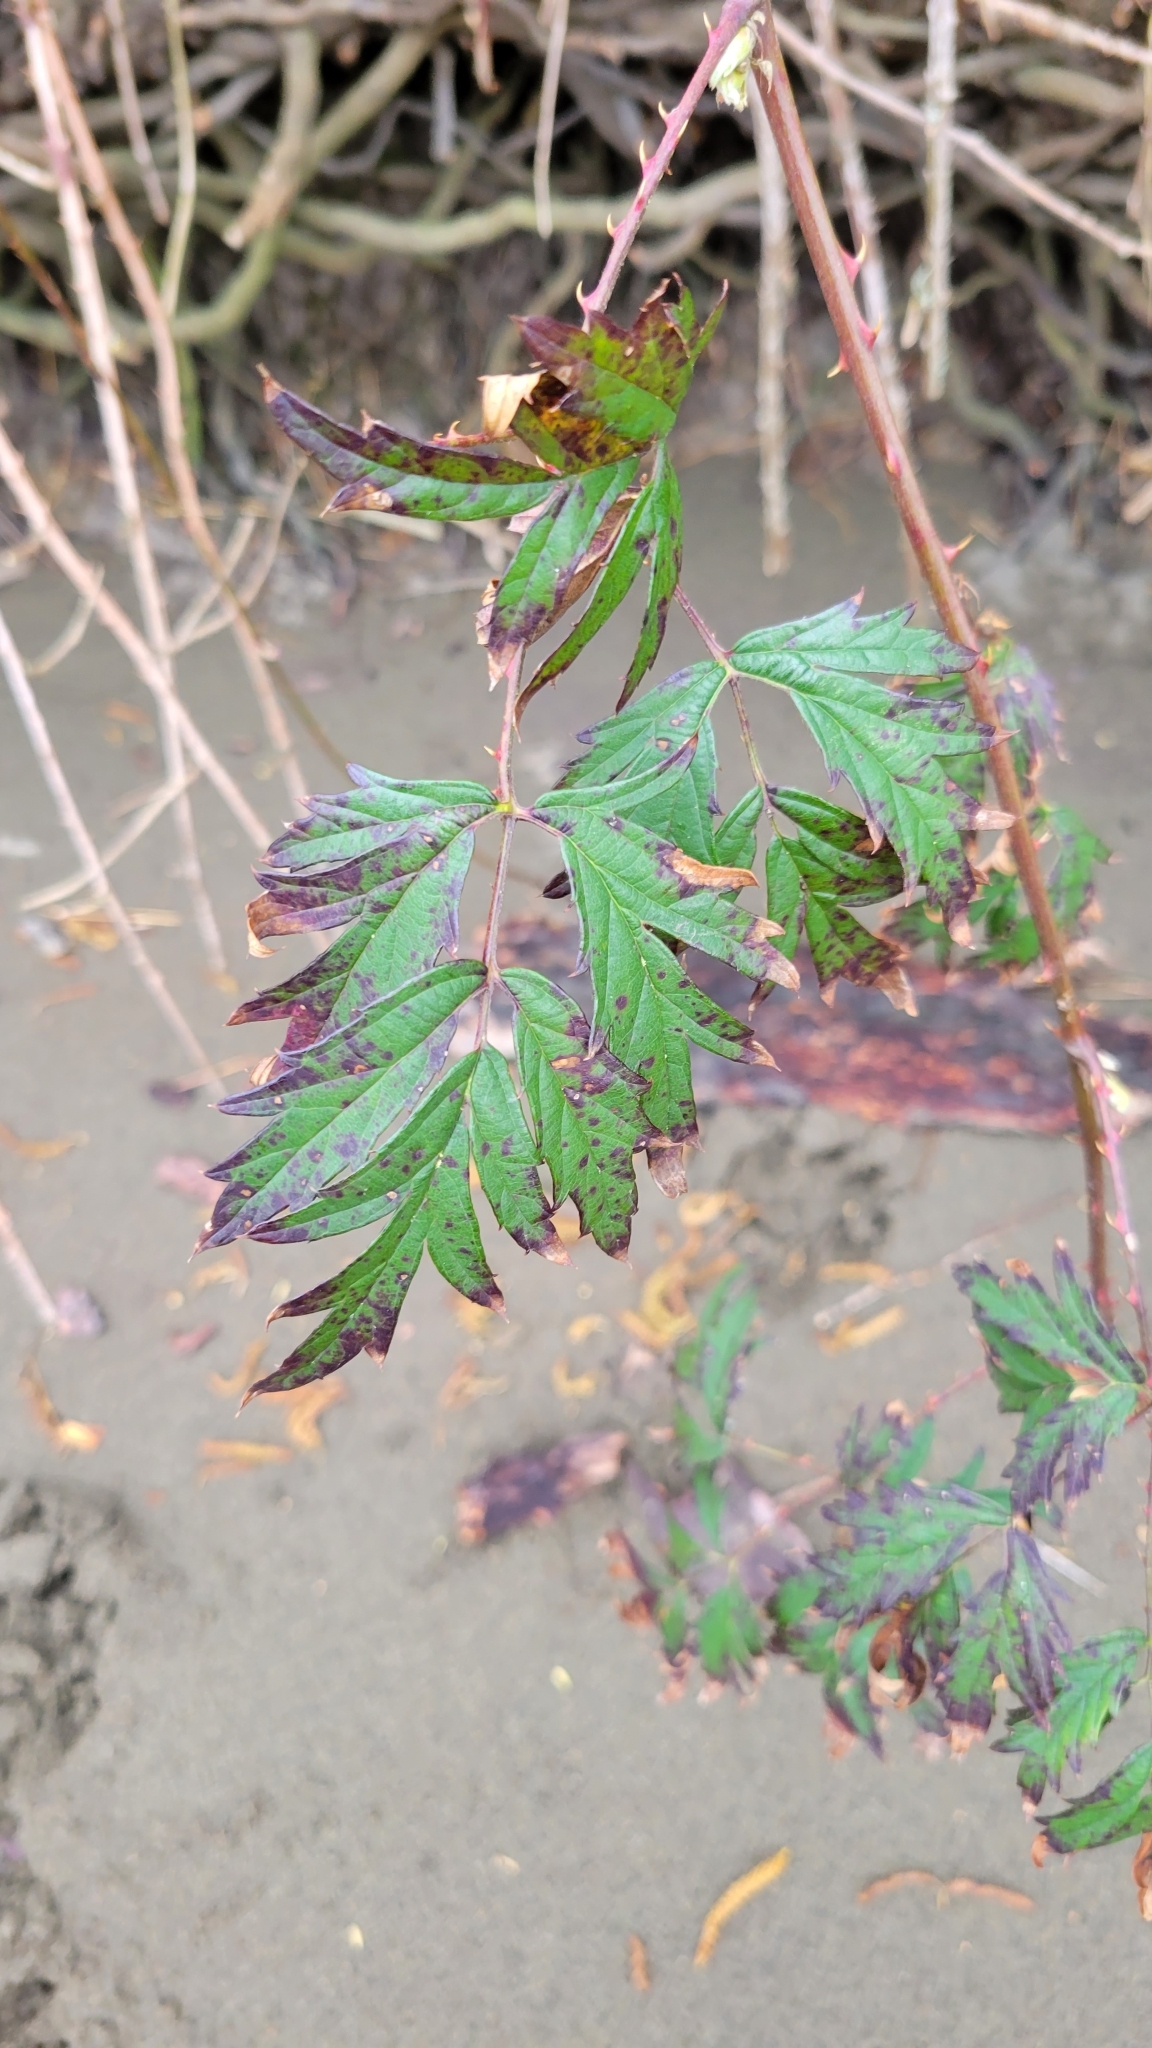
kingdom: Plantae
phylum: Tracheophyta
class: Magnoliopsida
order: Rosales
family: Rosaceae
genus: Rubus
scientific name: Rubus laciniatus
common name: Evergreen blackberry
